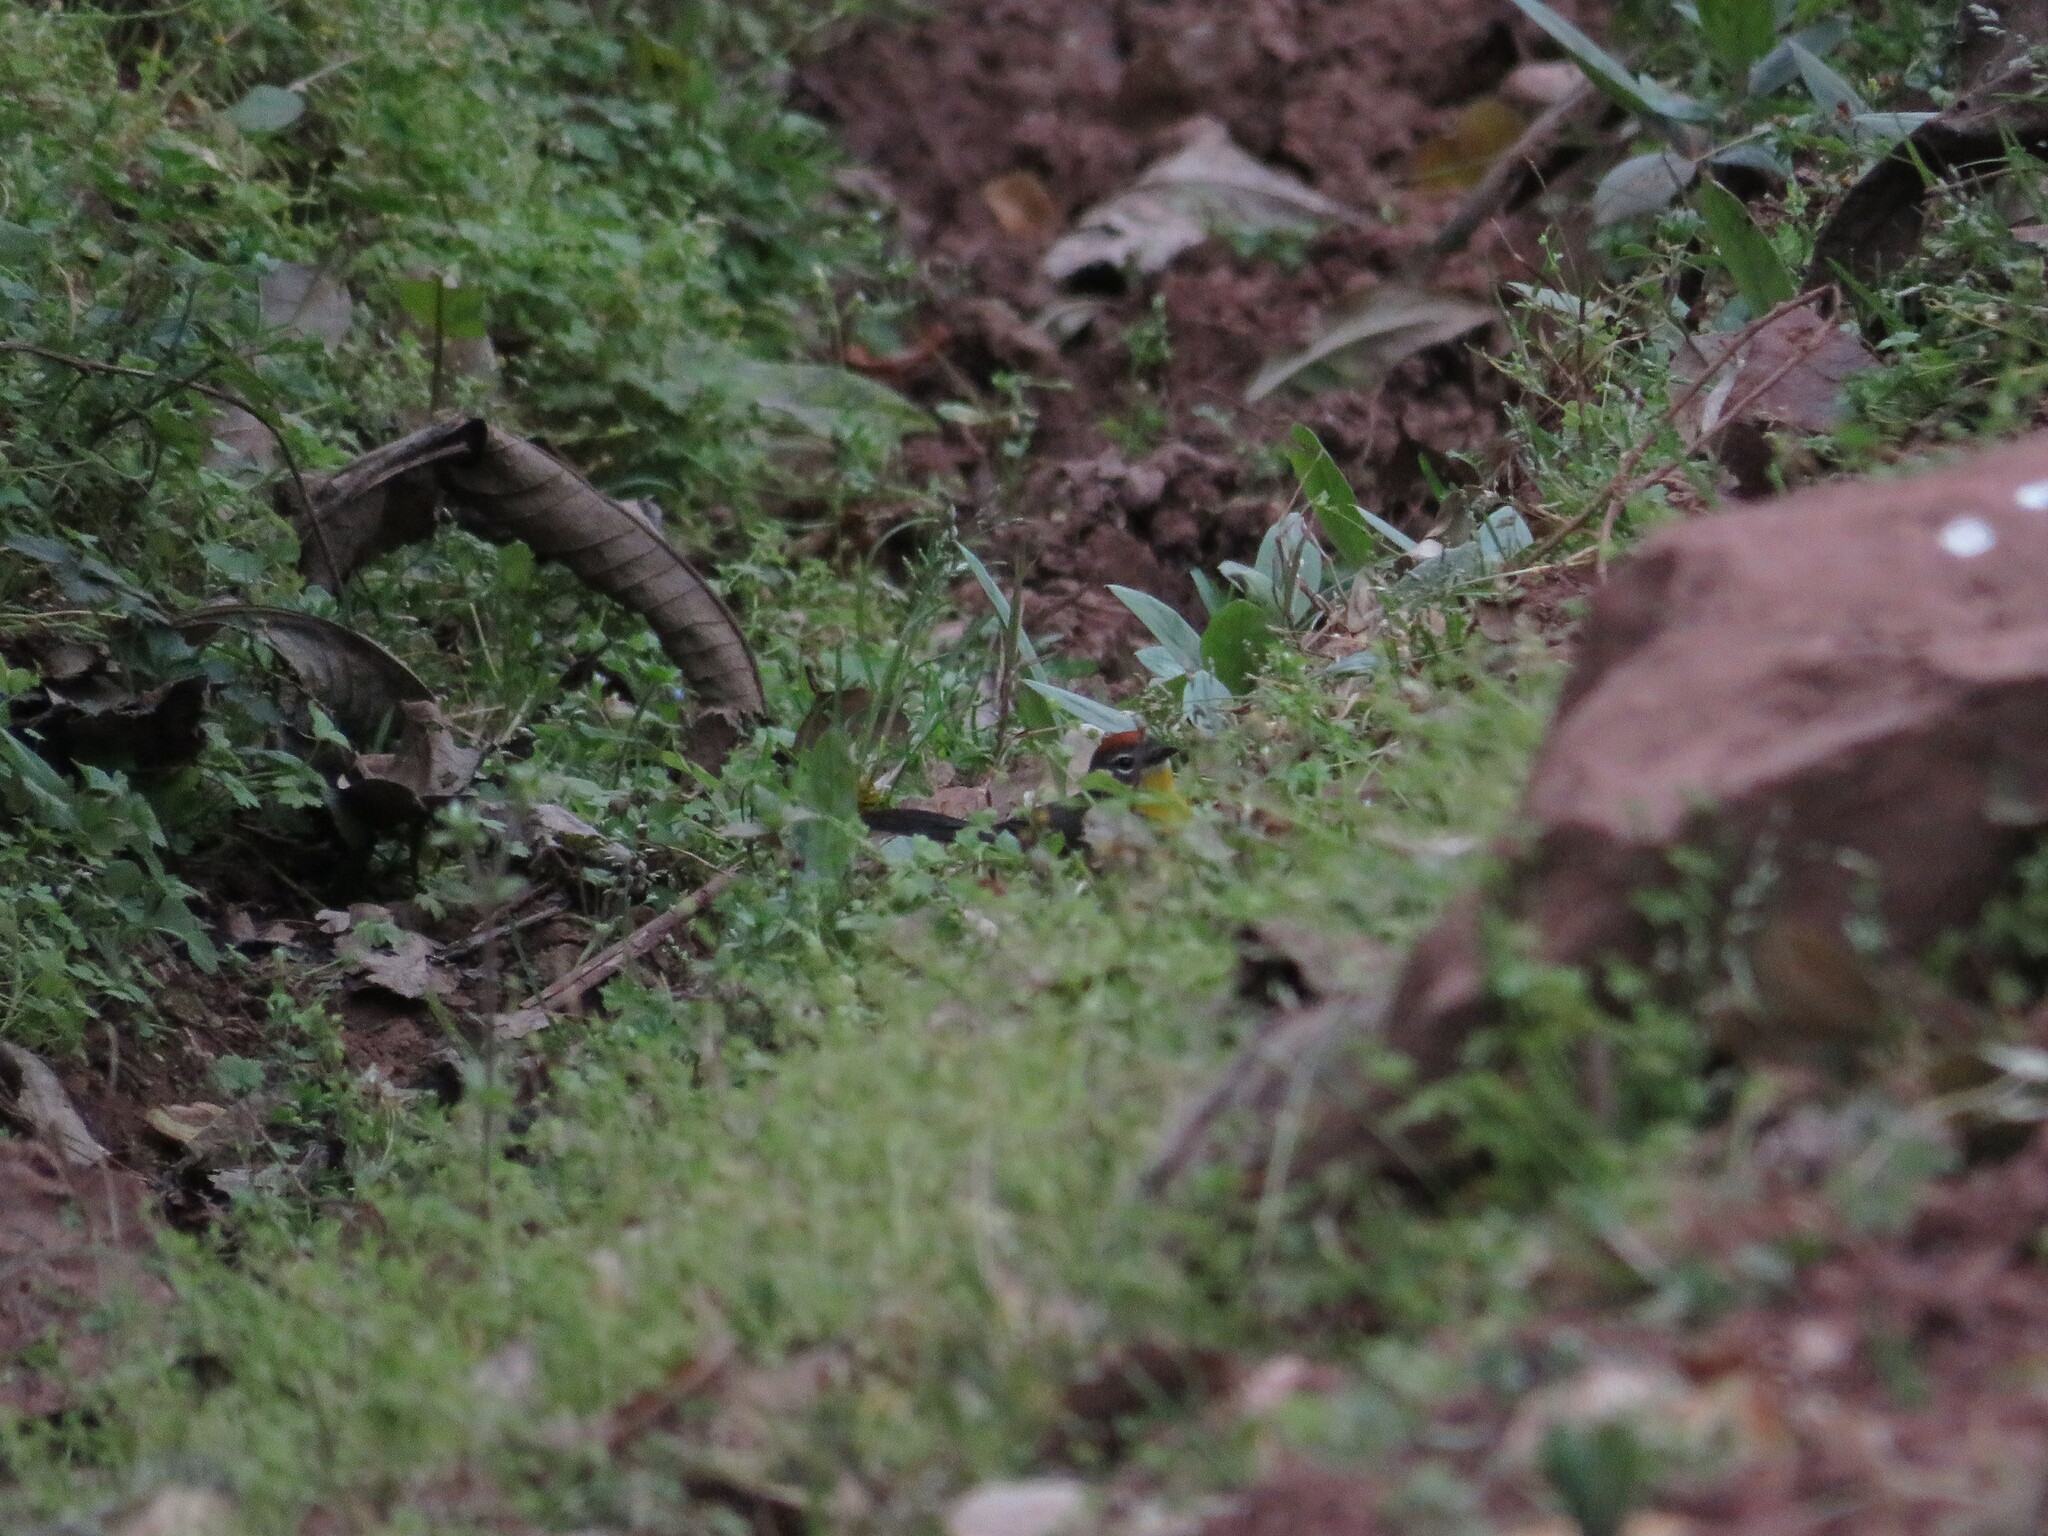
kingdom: Animalia
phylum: Chordata
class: Aves
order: Passeriformes
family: Parulidae
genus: Myioborus
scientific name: Myioborus brunniceps
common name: Brown-capped whitestart
